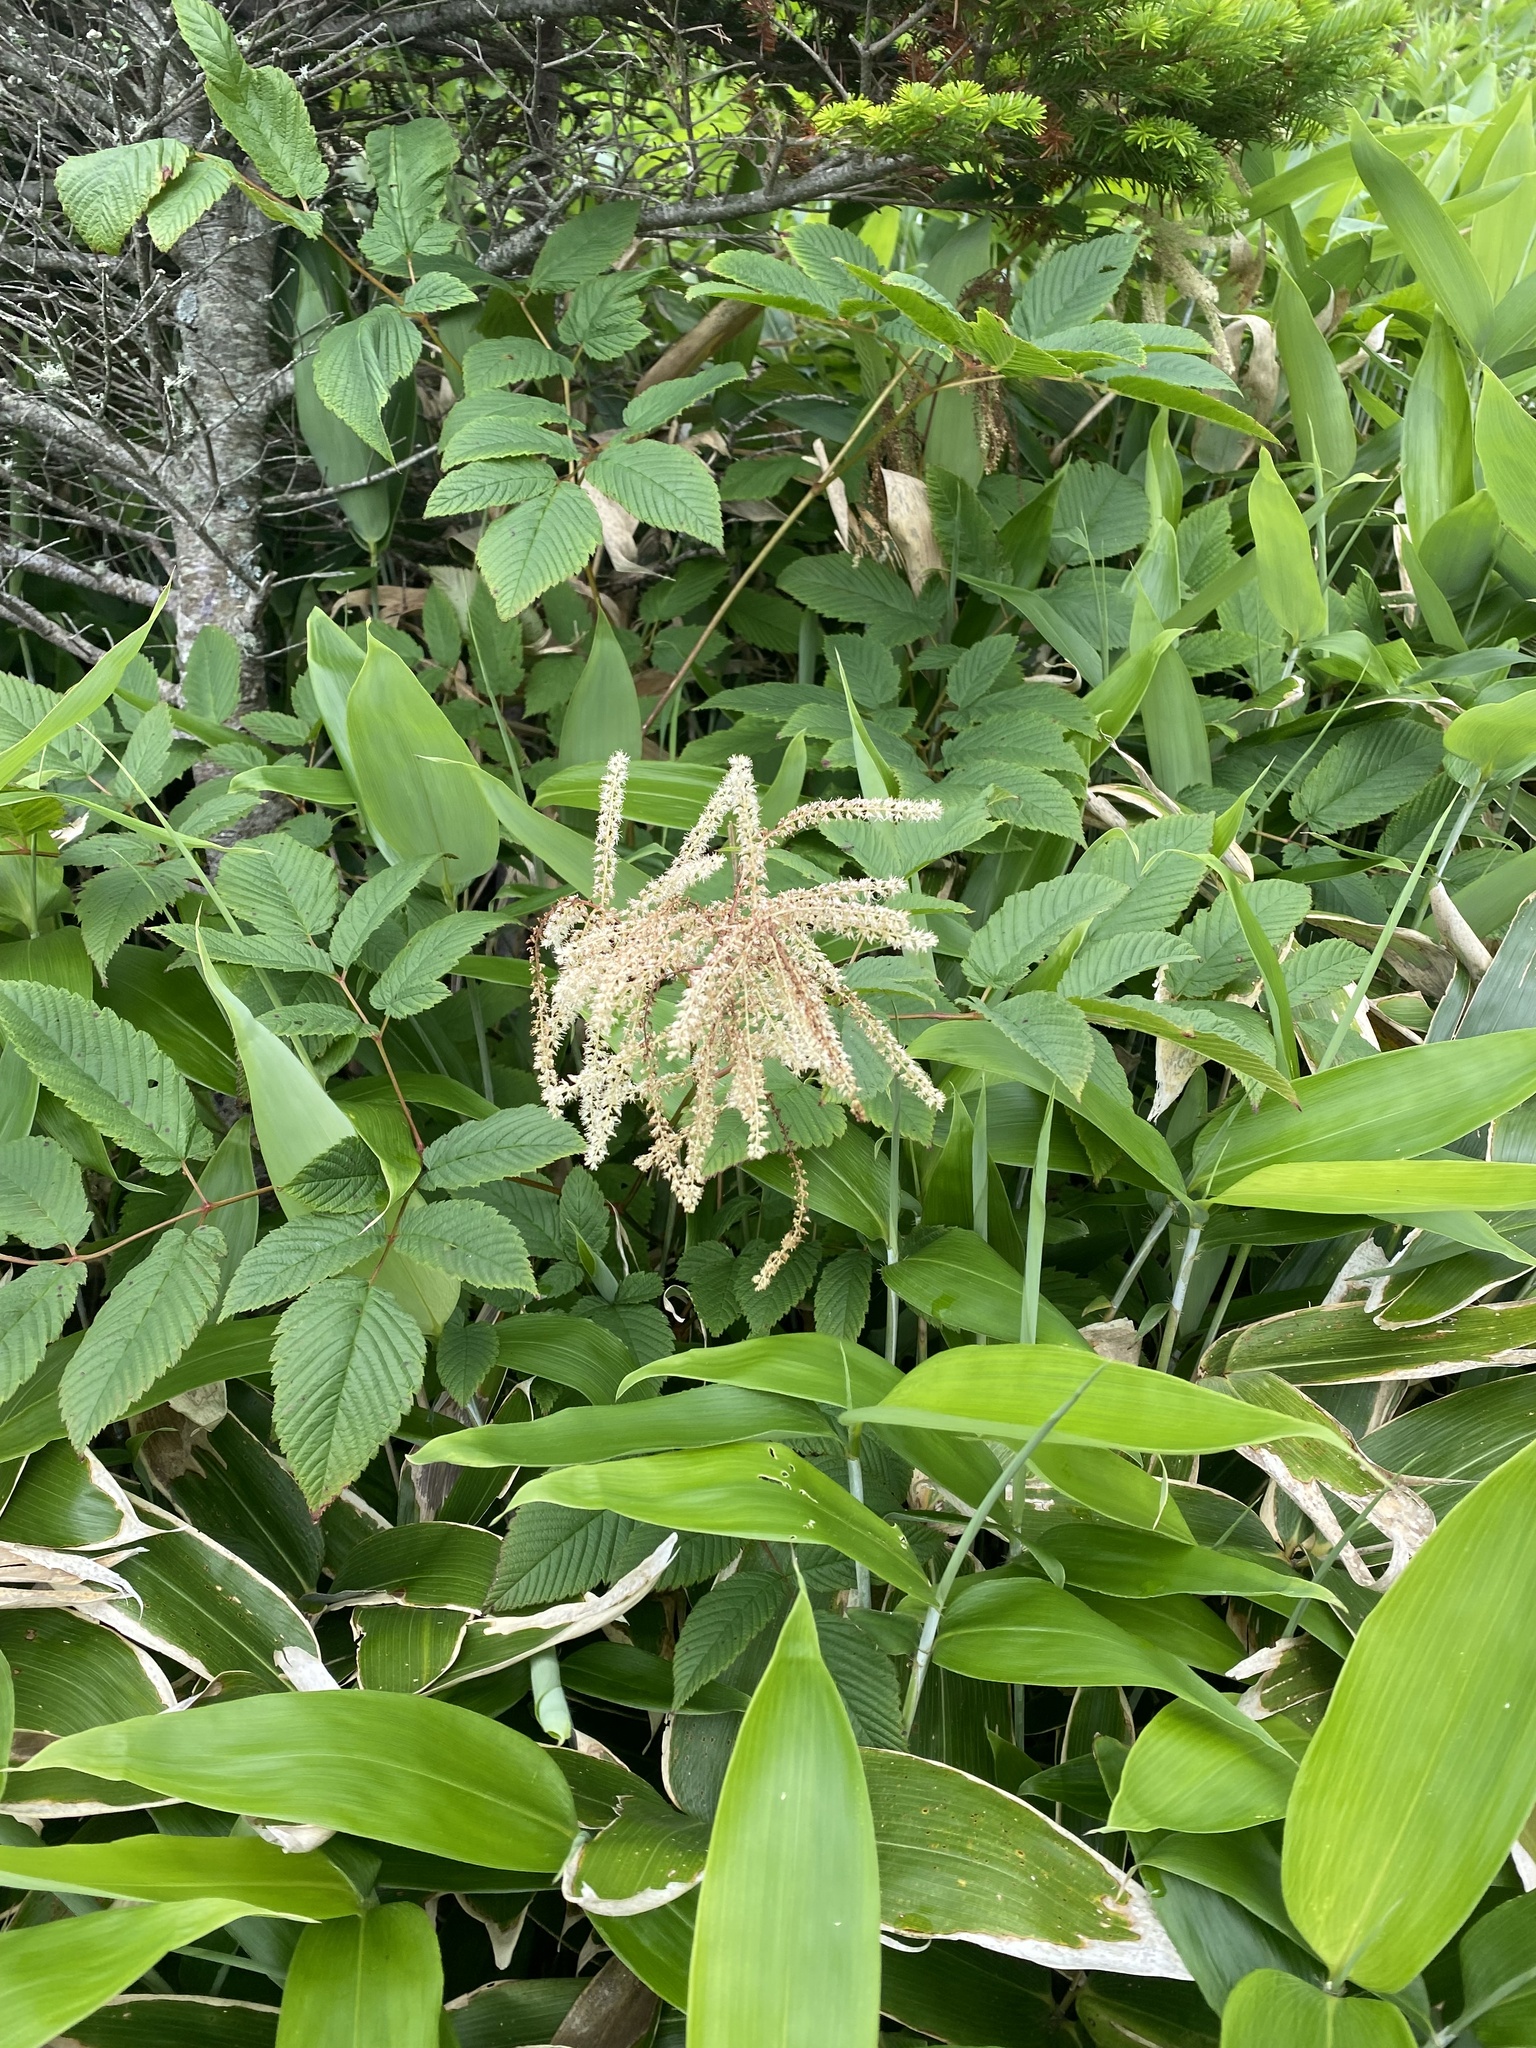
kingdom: Plantae
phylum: Tracheophyta
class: Magnoliopsida
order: Rosales
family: Rosaceae
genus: Aruncus
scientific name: Aruncus dioicus
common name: Buck's-beard
